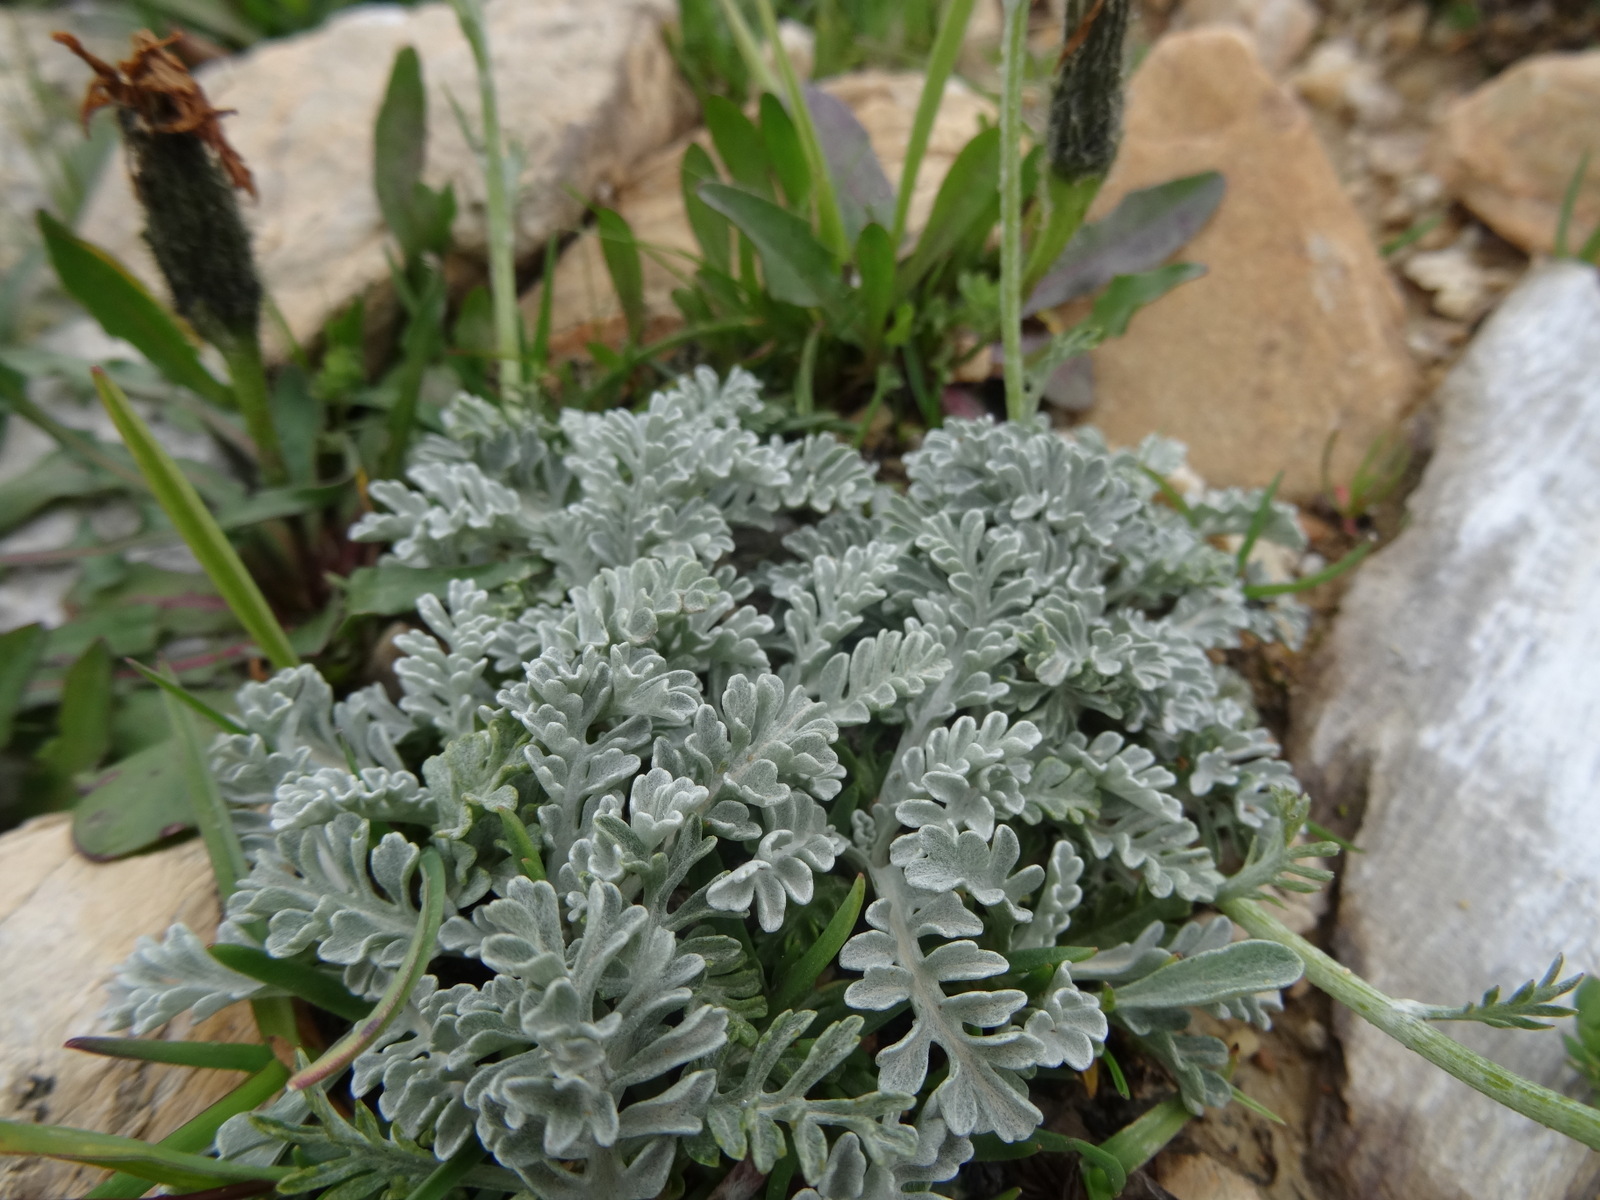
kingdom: Plantae
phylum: Tracheophyta
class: Magnoliopsida
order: Asterales
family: Asteraceae
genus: Jacobaea
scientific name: Jacobaea incana
